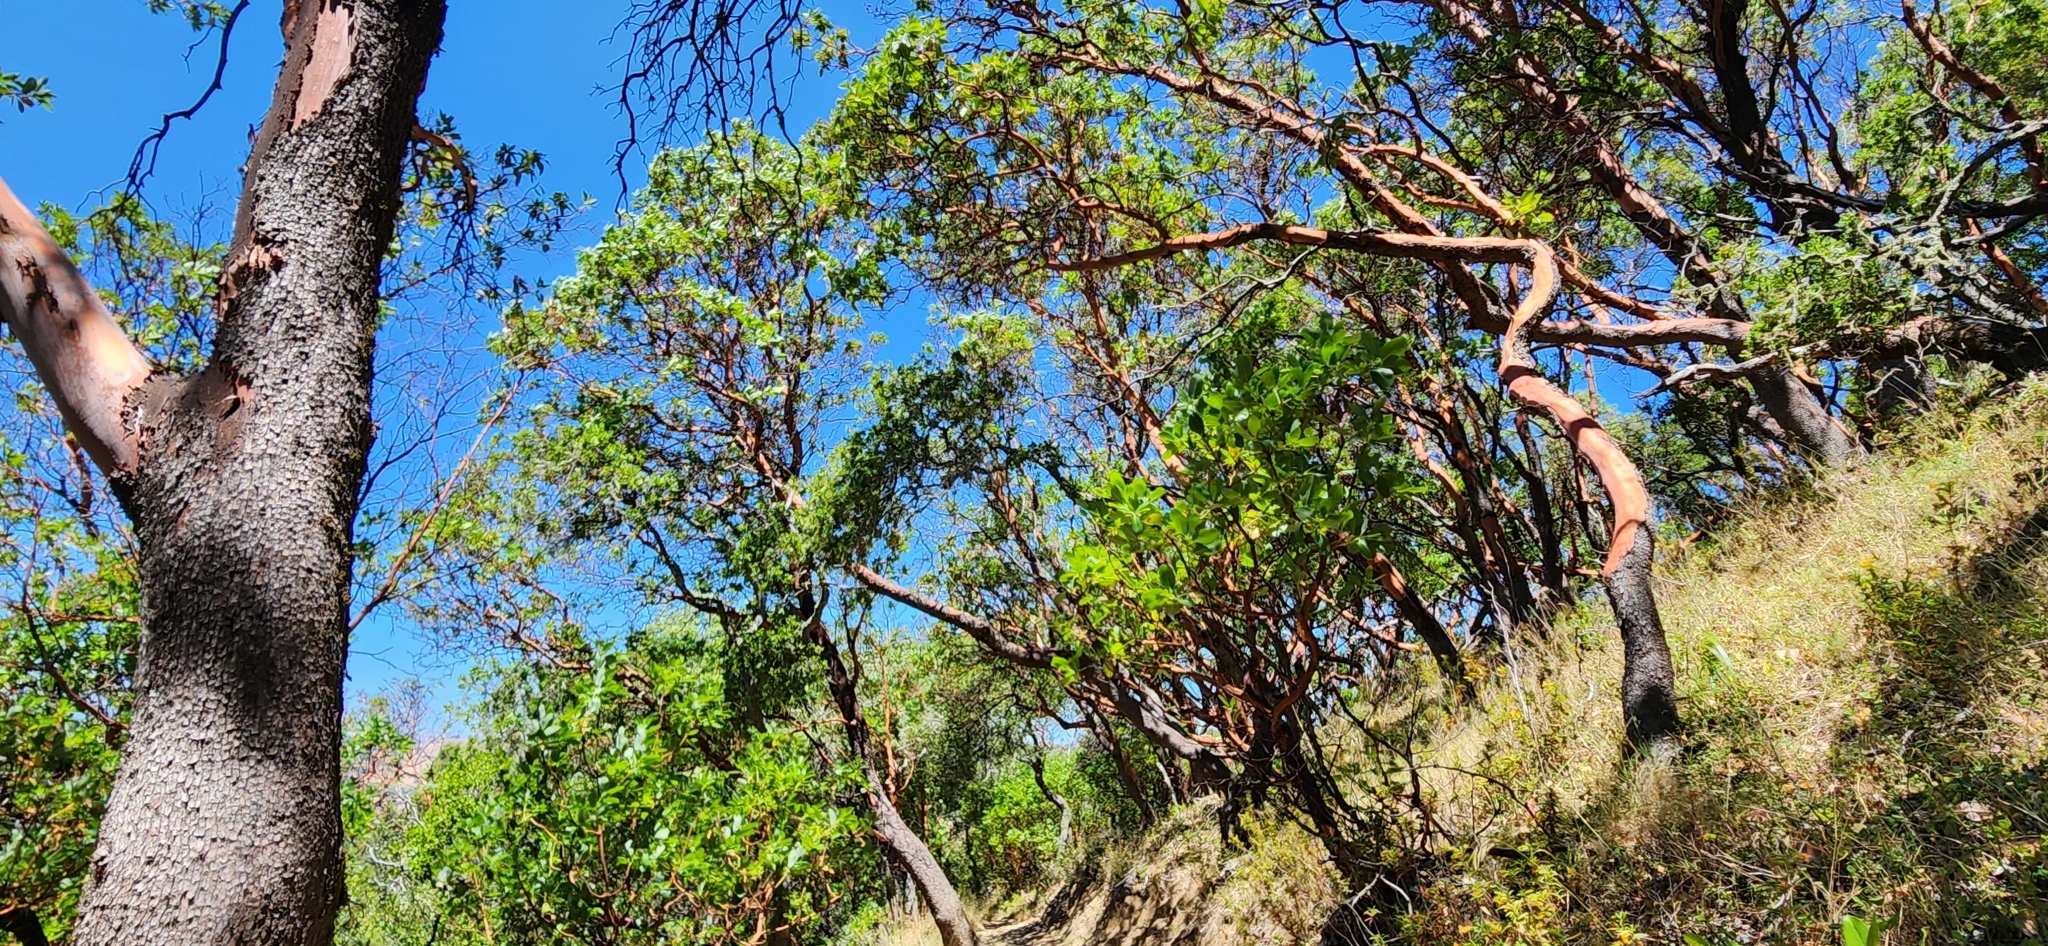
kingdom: Plantae
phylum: Tracheophyta
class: Magnoliopsida
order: Ericales
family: Ericaceae
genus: Arbutus
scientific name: Arbutus menziesii
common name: Pacific madrone
